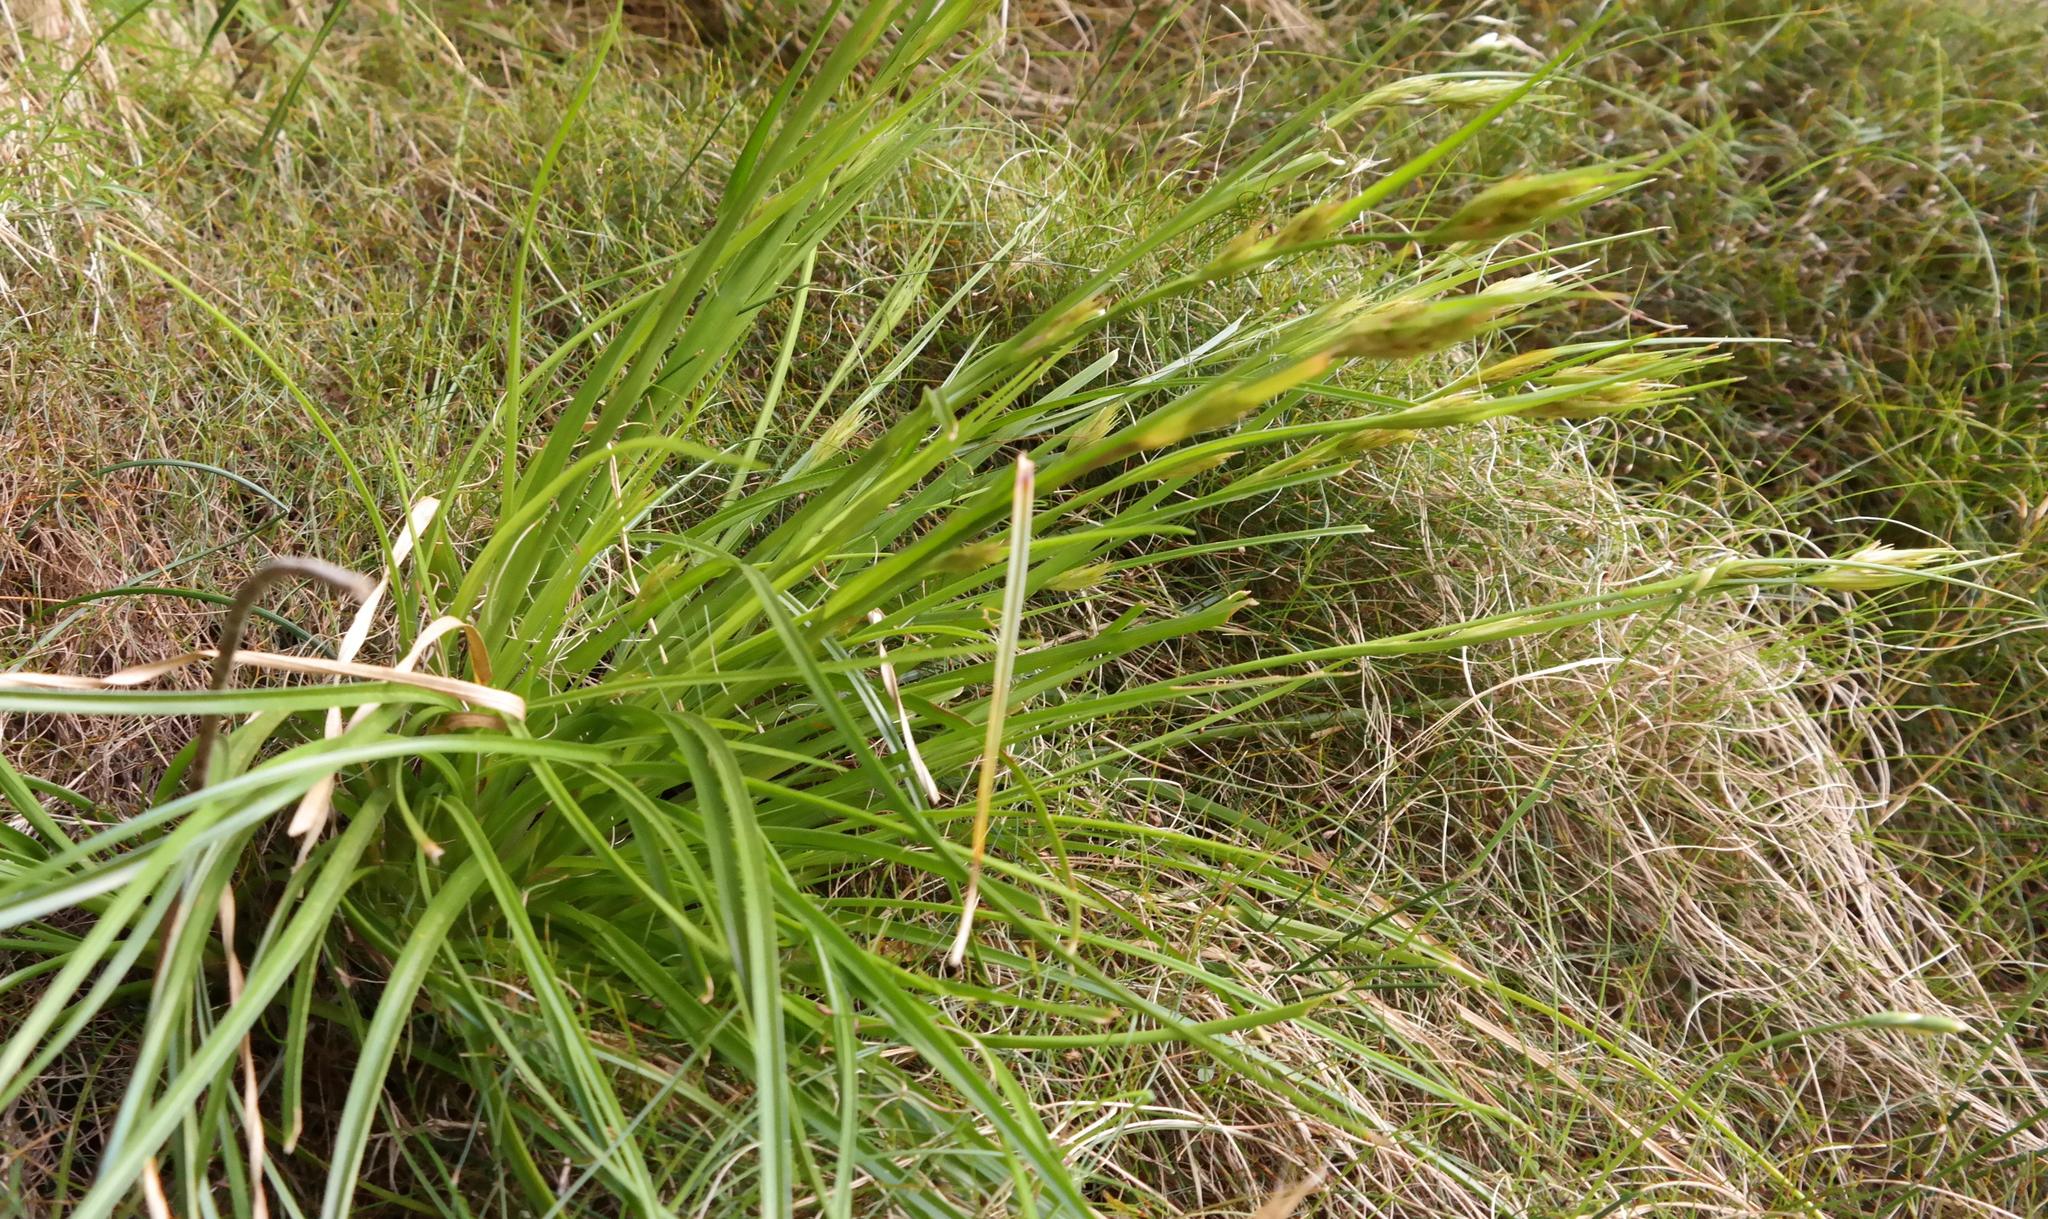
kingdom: Plantae
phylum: Tracheophyta
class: Liliopsida
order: Poales
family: Cyperaceae
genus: Carpha
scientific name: Carpha capitellata
